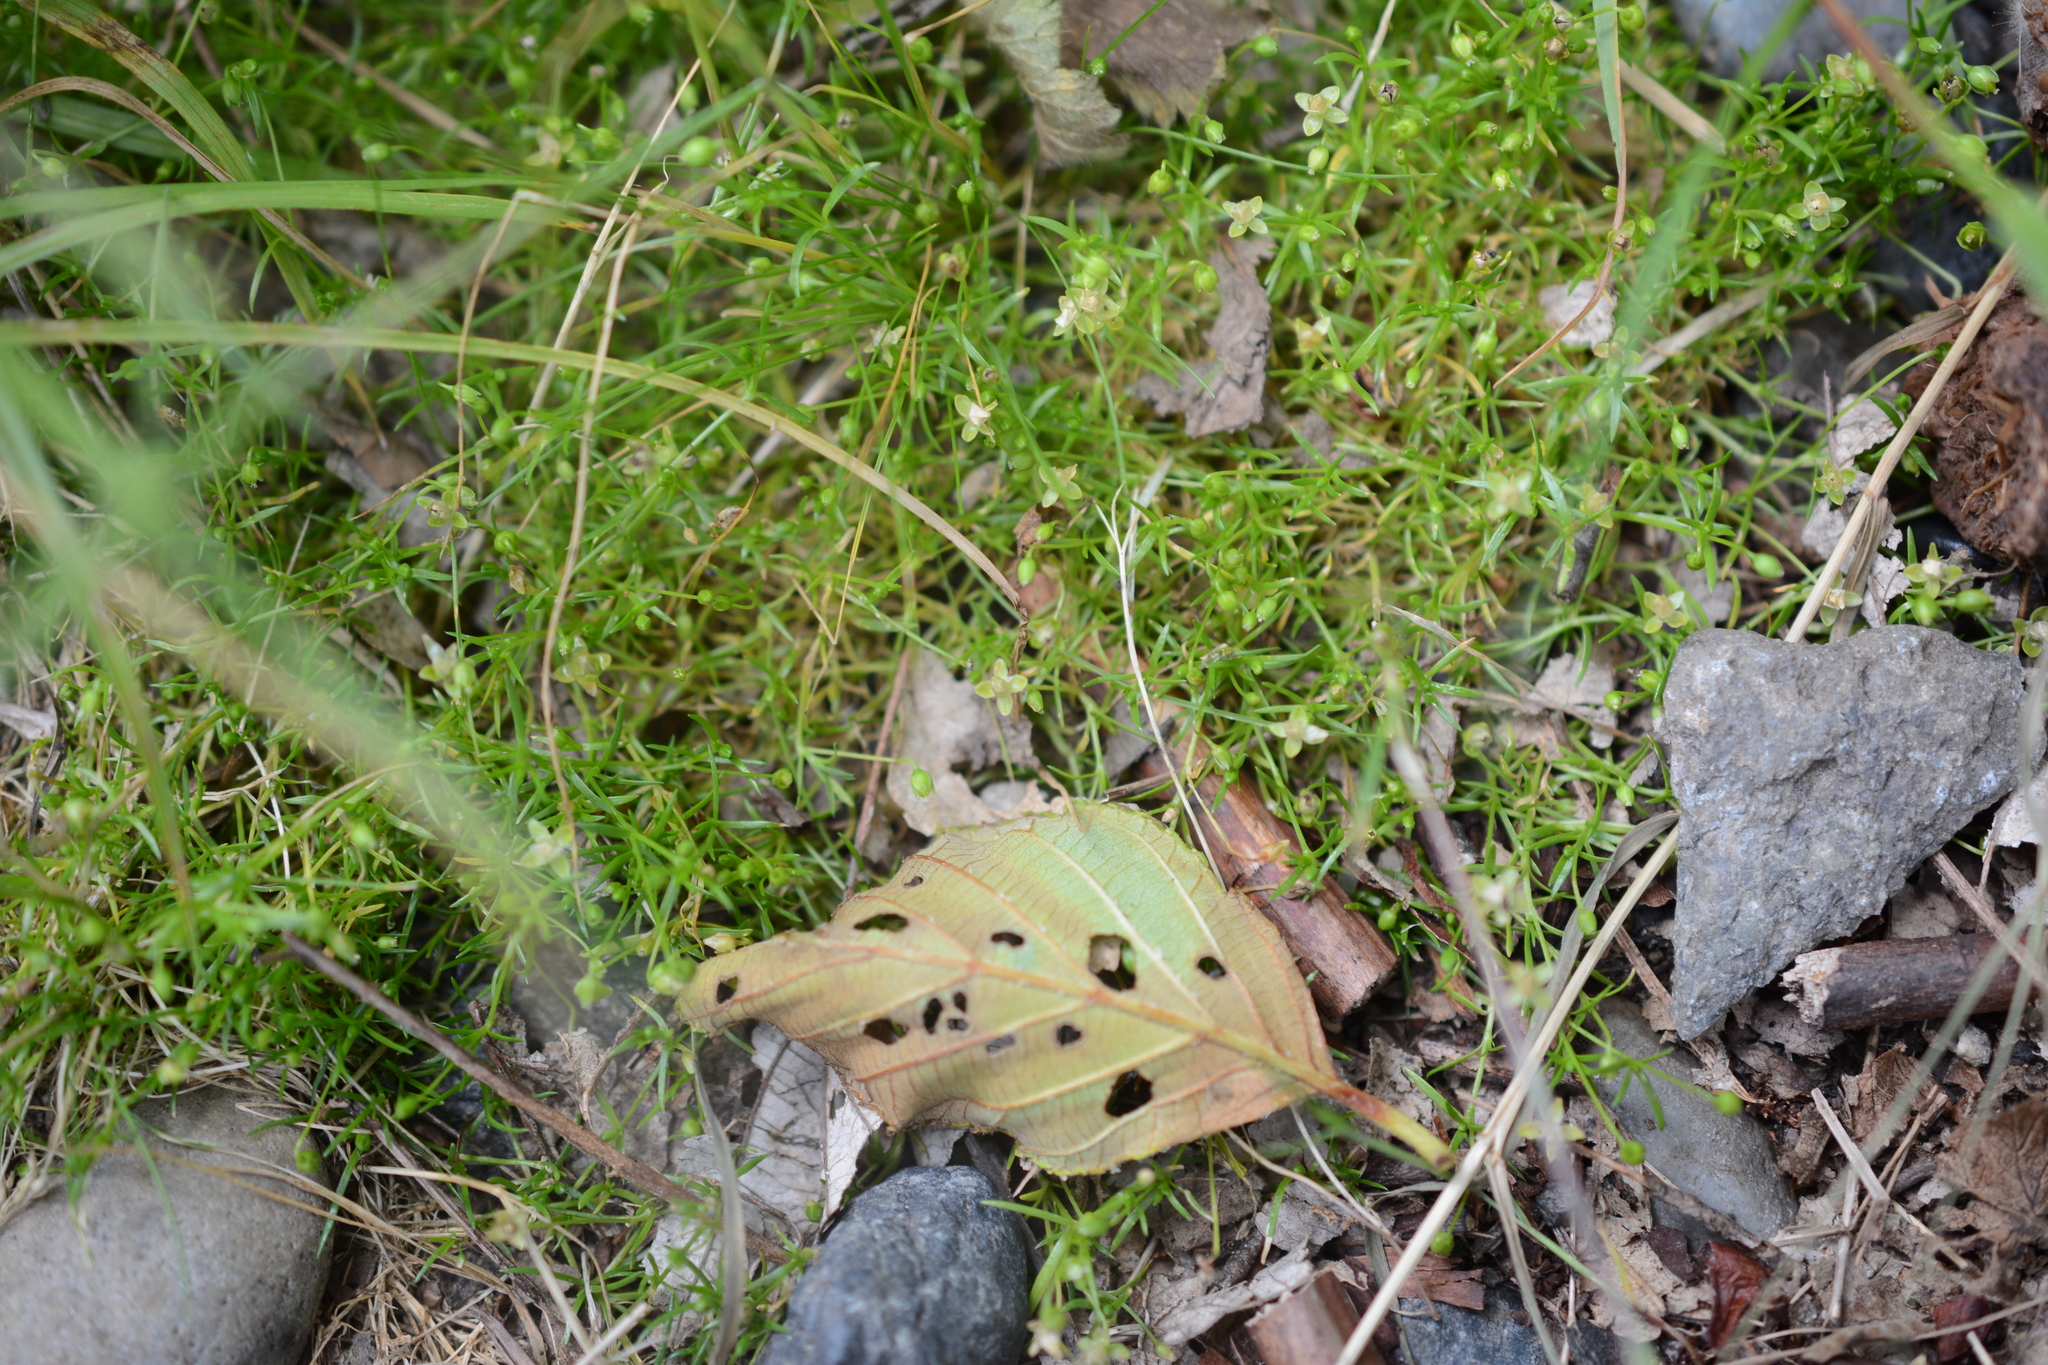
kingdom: Plantae
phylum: Tracheophyta
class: Magnoliopsida
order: Caryophyllales
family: Caryophyllaceae
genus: Sagina
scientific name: Sagina procumbens
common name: Procumbent pearlwort
